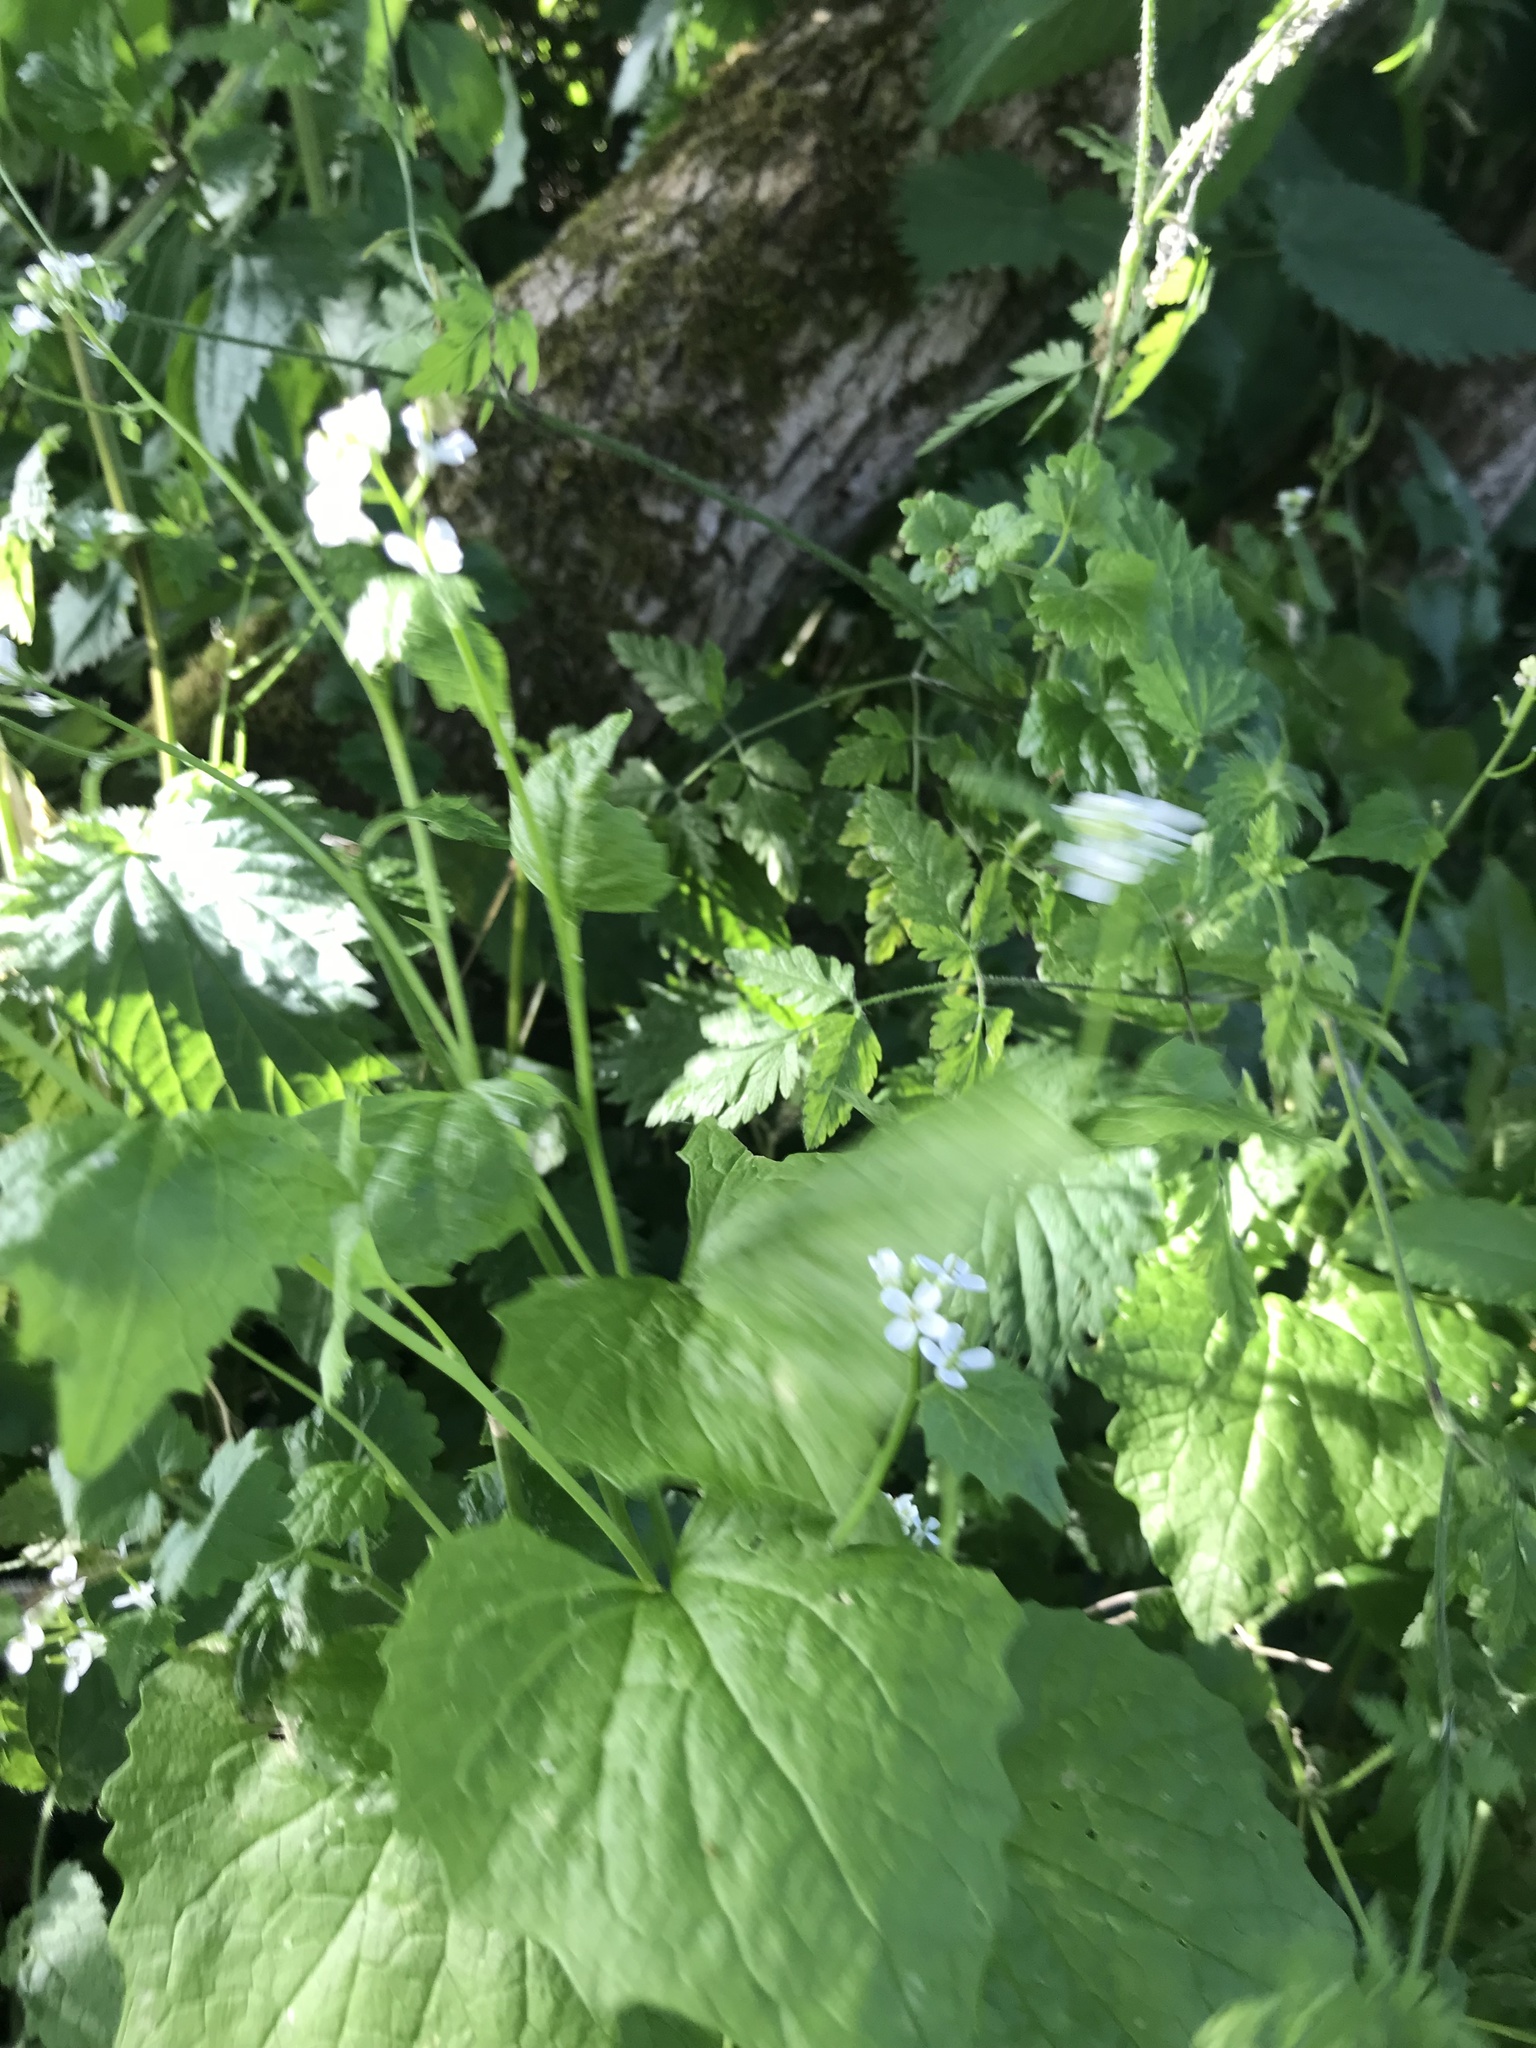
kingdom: Plantae
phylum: Tracheophyta
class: Magnoliopsida
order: Brassicales
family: Brassicaceae
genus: Alliaria
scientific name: Alliaria petiolata
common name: Garlic mustard
